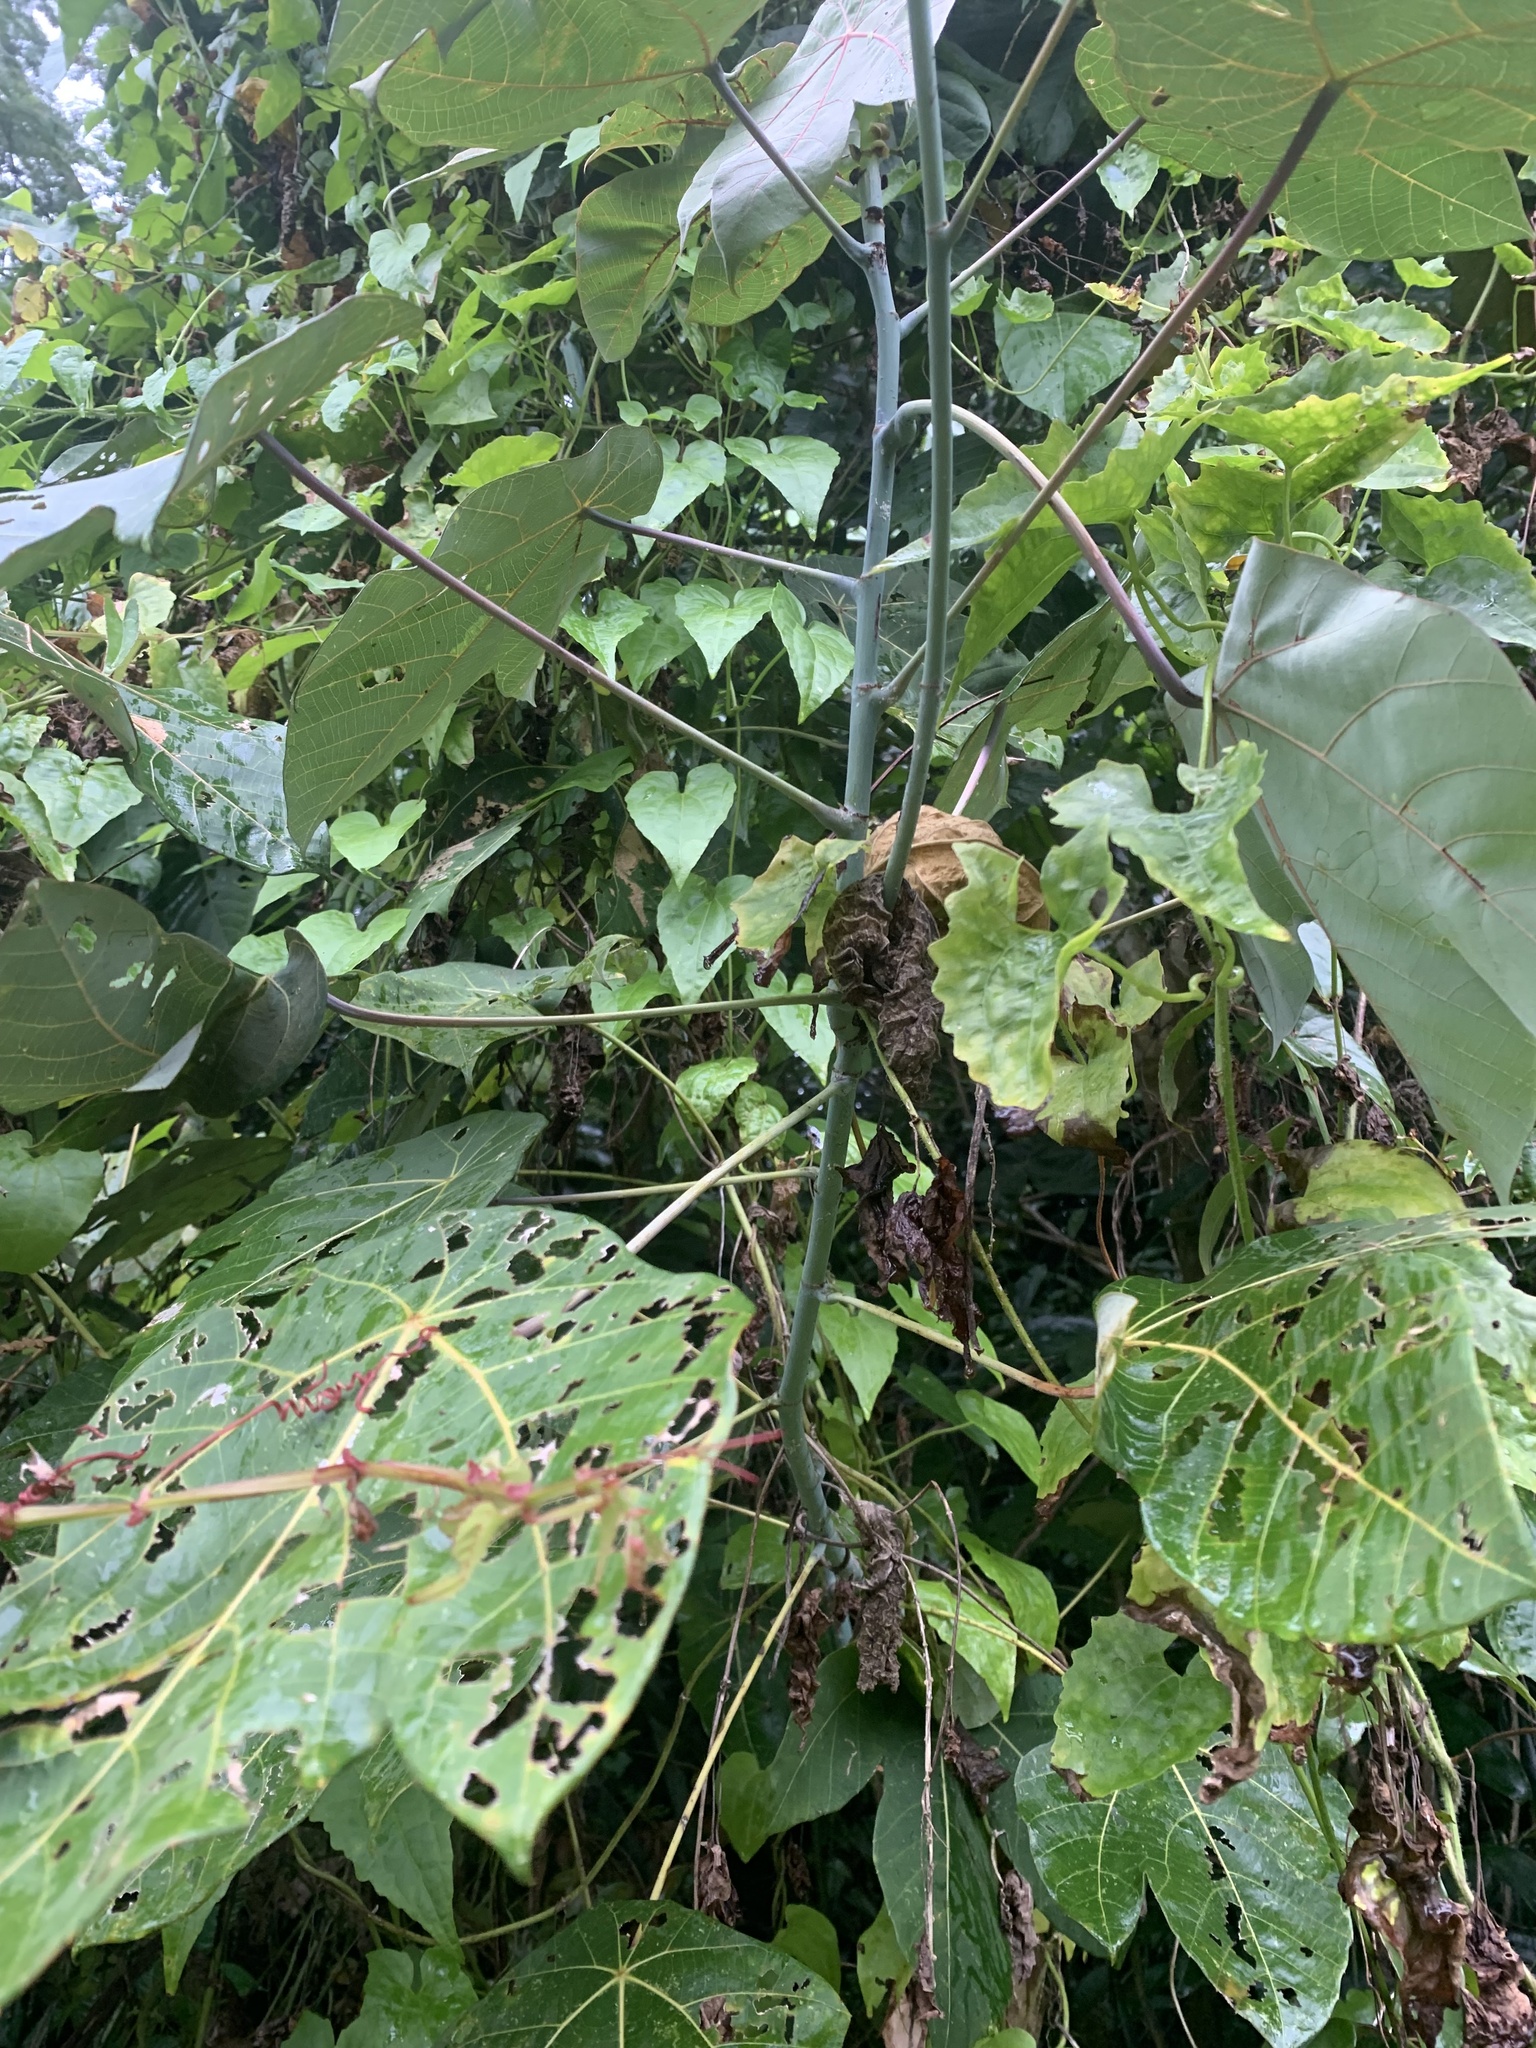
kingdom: Plantae
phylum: Tracheophyta
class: Magnoliopsida
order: Malpighiales
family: Euphorbiaceae
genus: Macaranga
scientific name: Macaranga griffithiana
